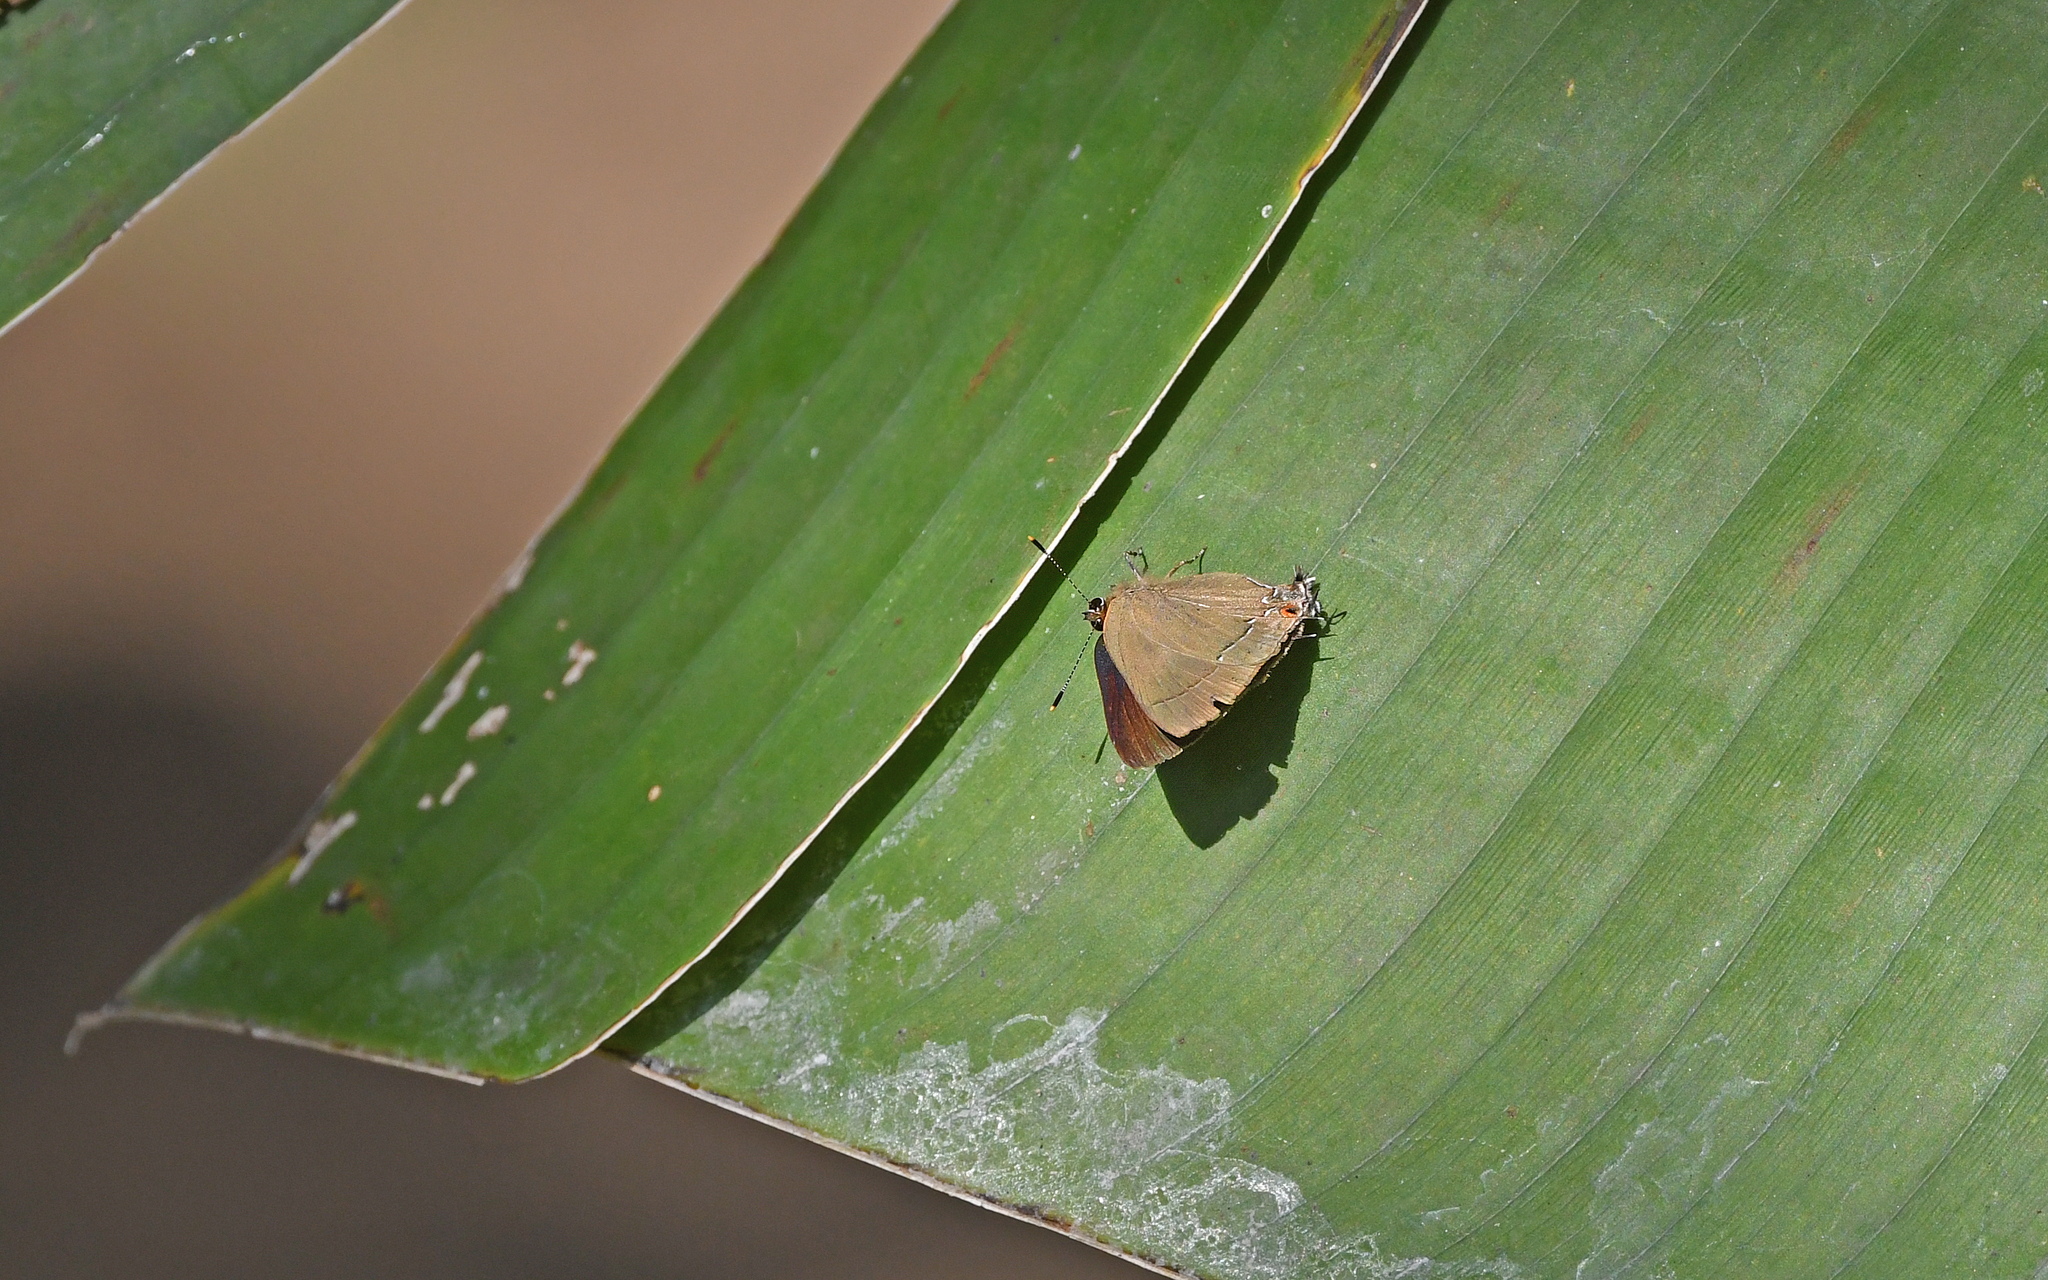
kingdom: Animalia
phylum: Arthropoda
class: Insecta
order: Lepidoptera
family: Lycaenidae
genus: Ziegleria
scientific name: Ziegleria hesperitis
